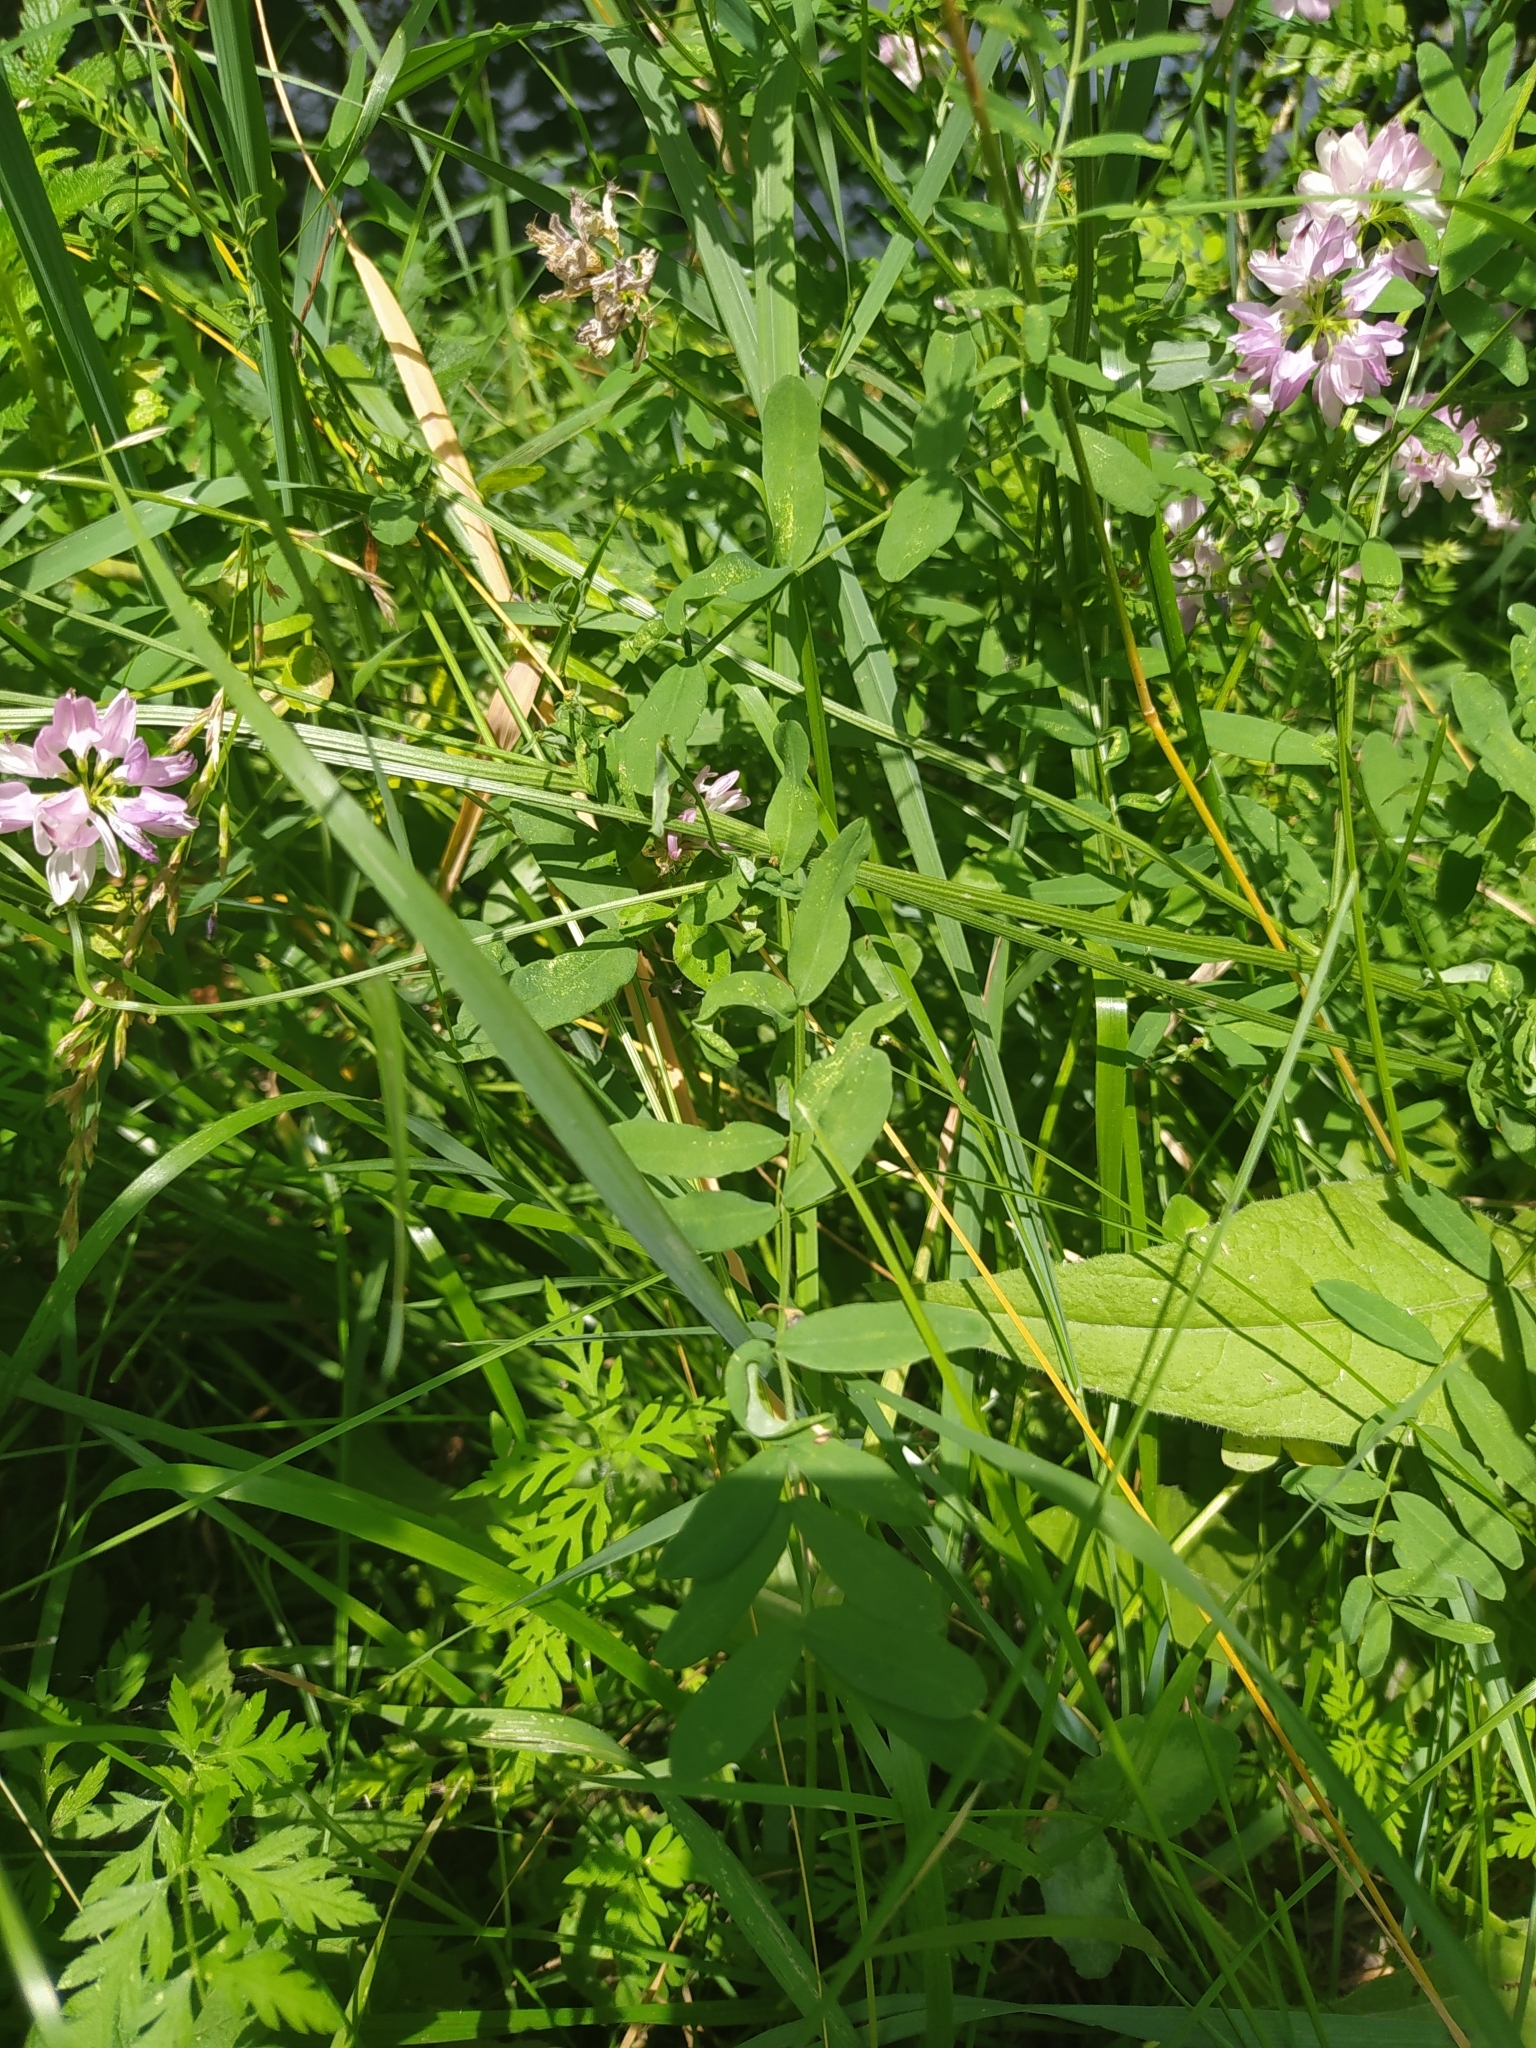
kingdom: Plantae
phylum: Tracheophyta
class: Magnoliopsida
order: Fabales
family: Fabaceae
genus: Coronilla
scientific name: Coronilla varia
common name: Crownvetch
